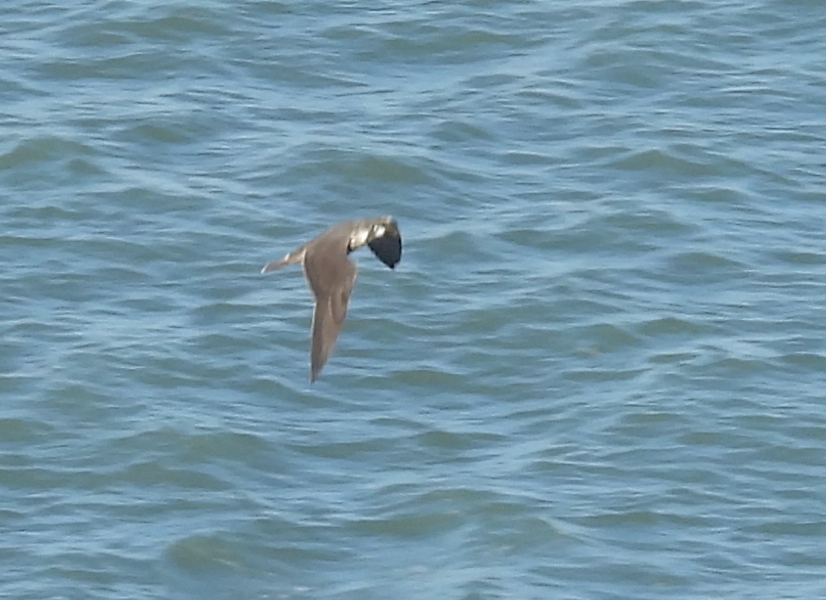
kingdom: Animalia
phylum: Chordata
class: Aves
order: Falconiformes
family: Falconidae
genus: Falco
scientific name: Falco peregrinus
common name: Peregrine falcon
